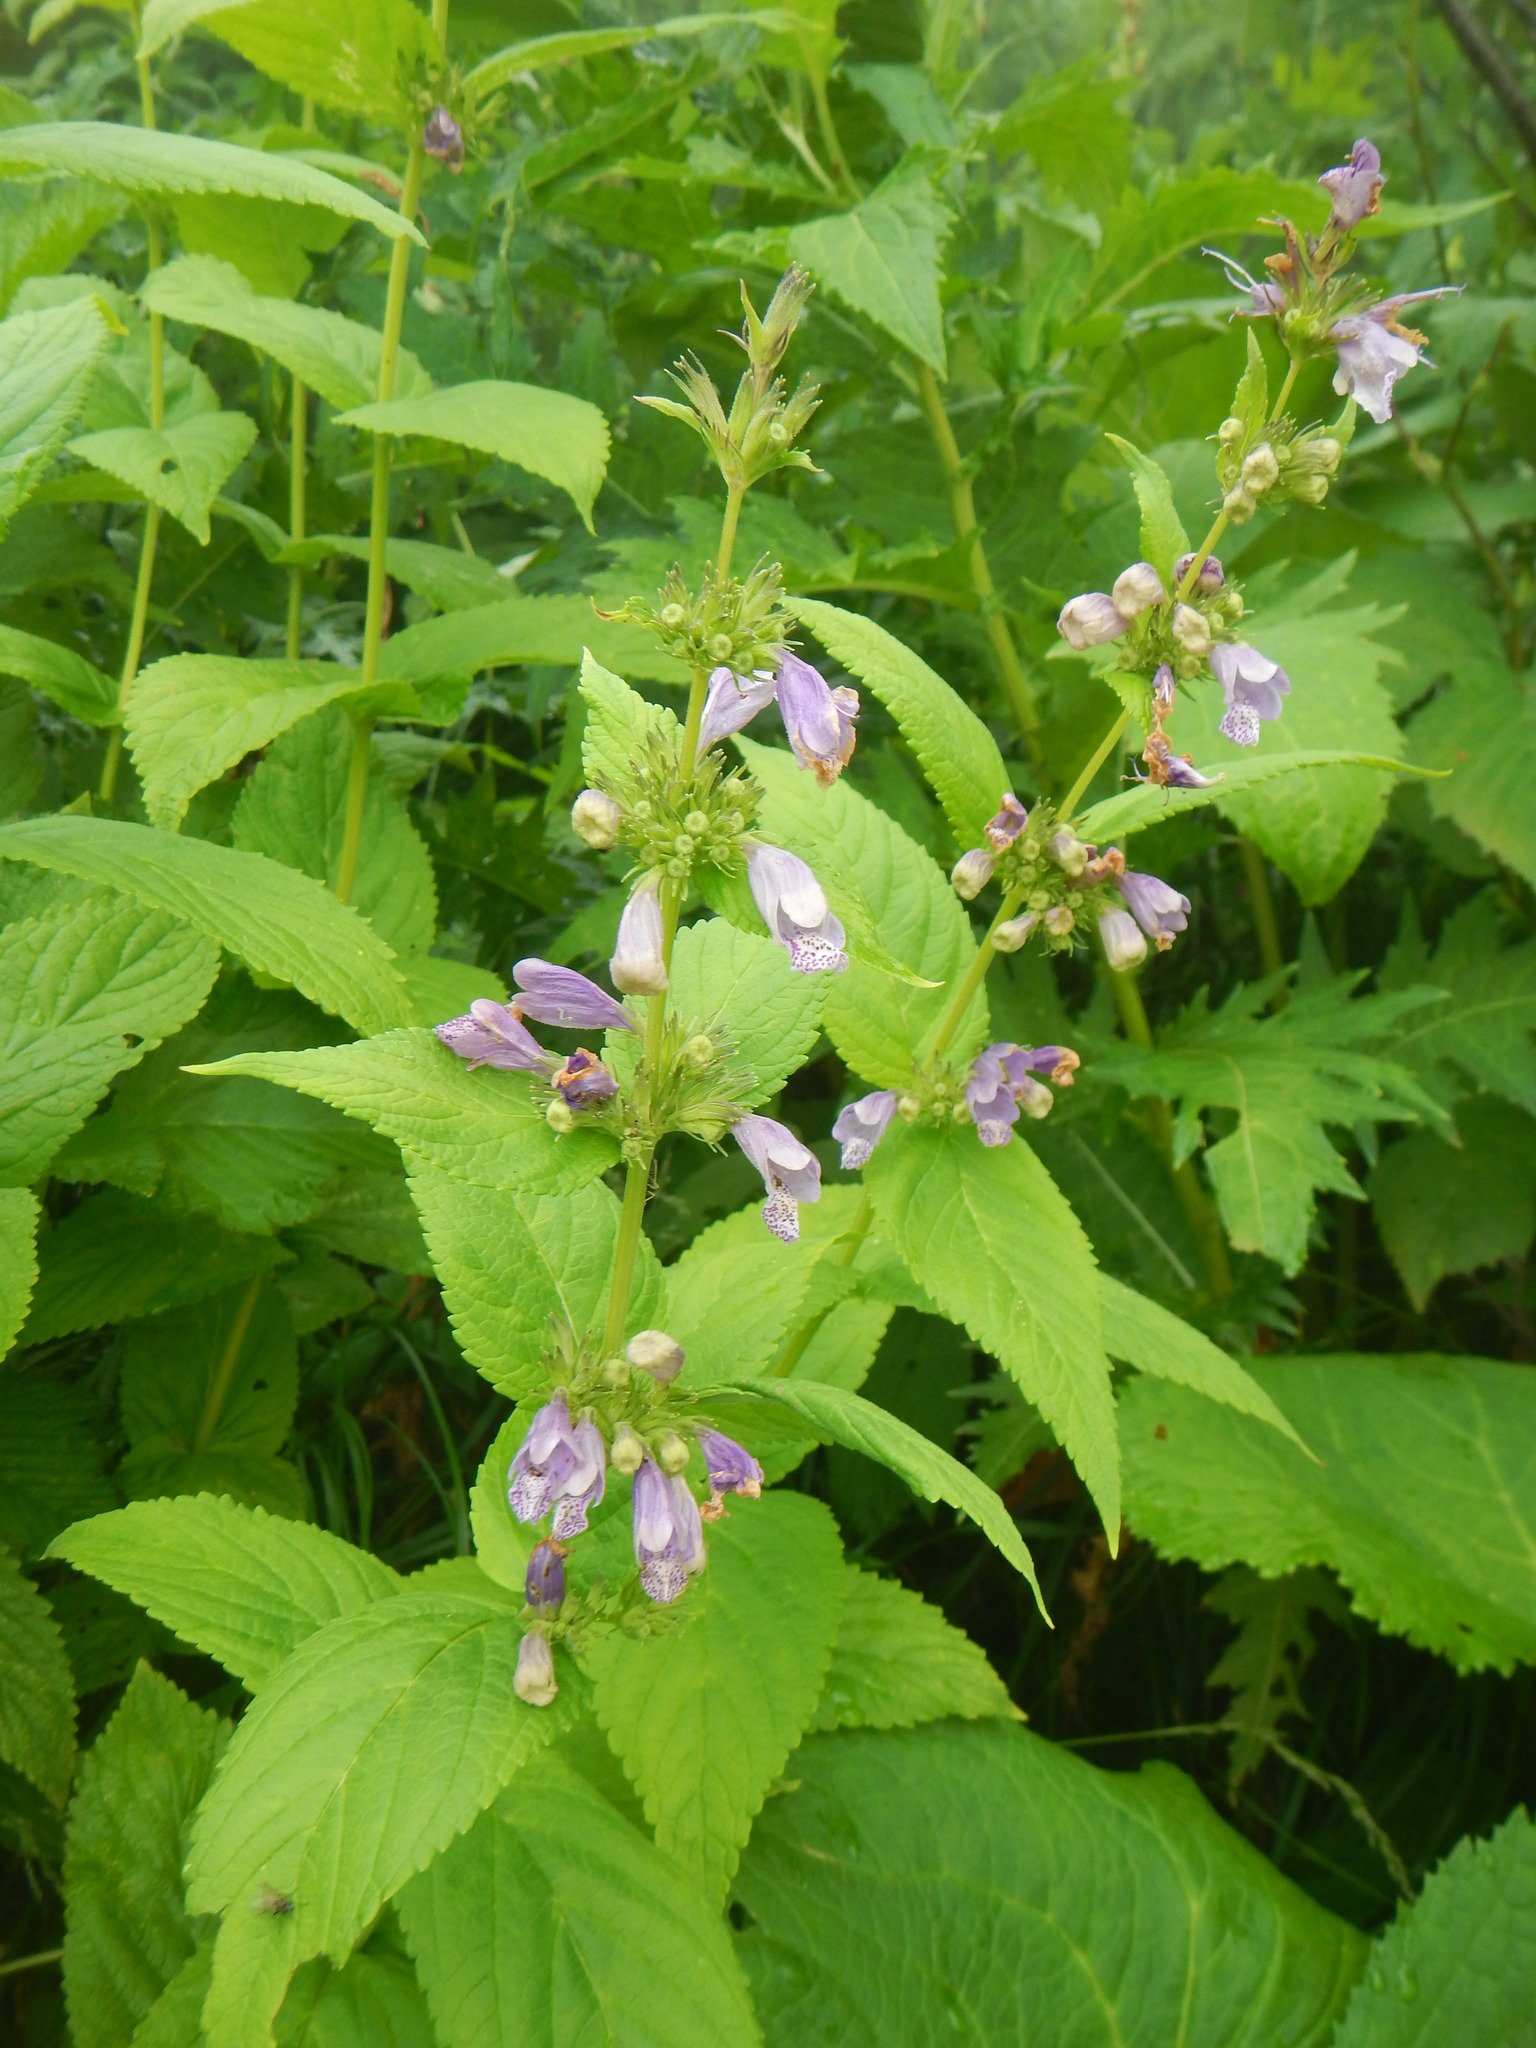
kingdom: Plantae
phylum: Tracheophyta
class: Magnoliopsida
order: Lamiales
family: Lamiaceae
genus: Nepeta
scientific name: Nepeta subsessilis
